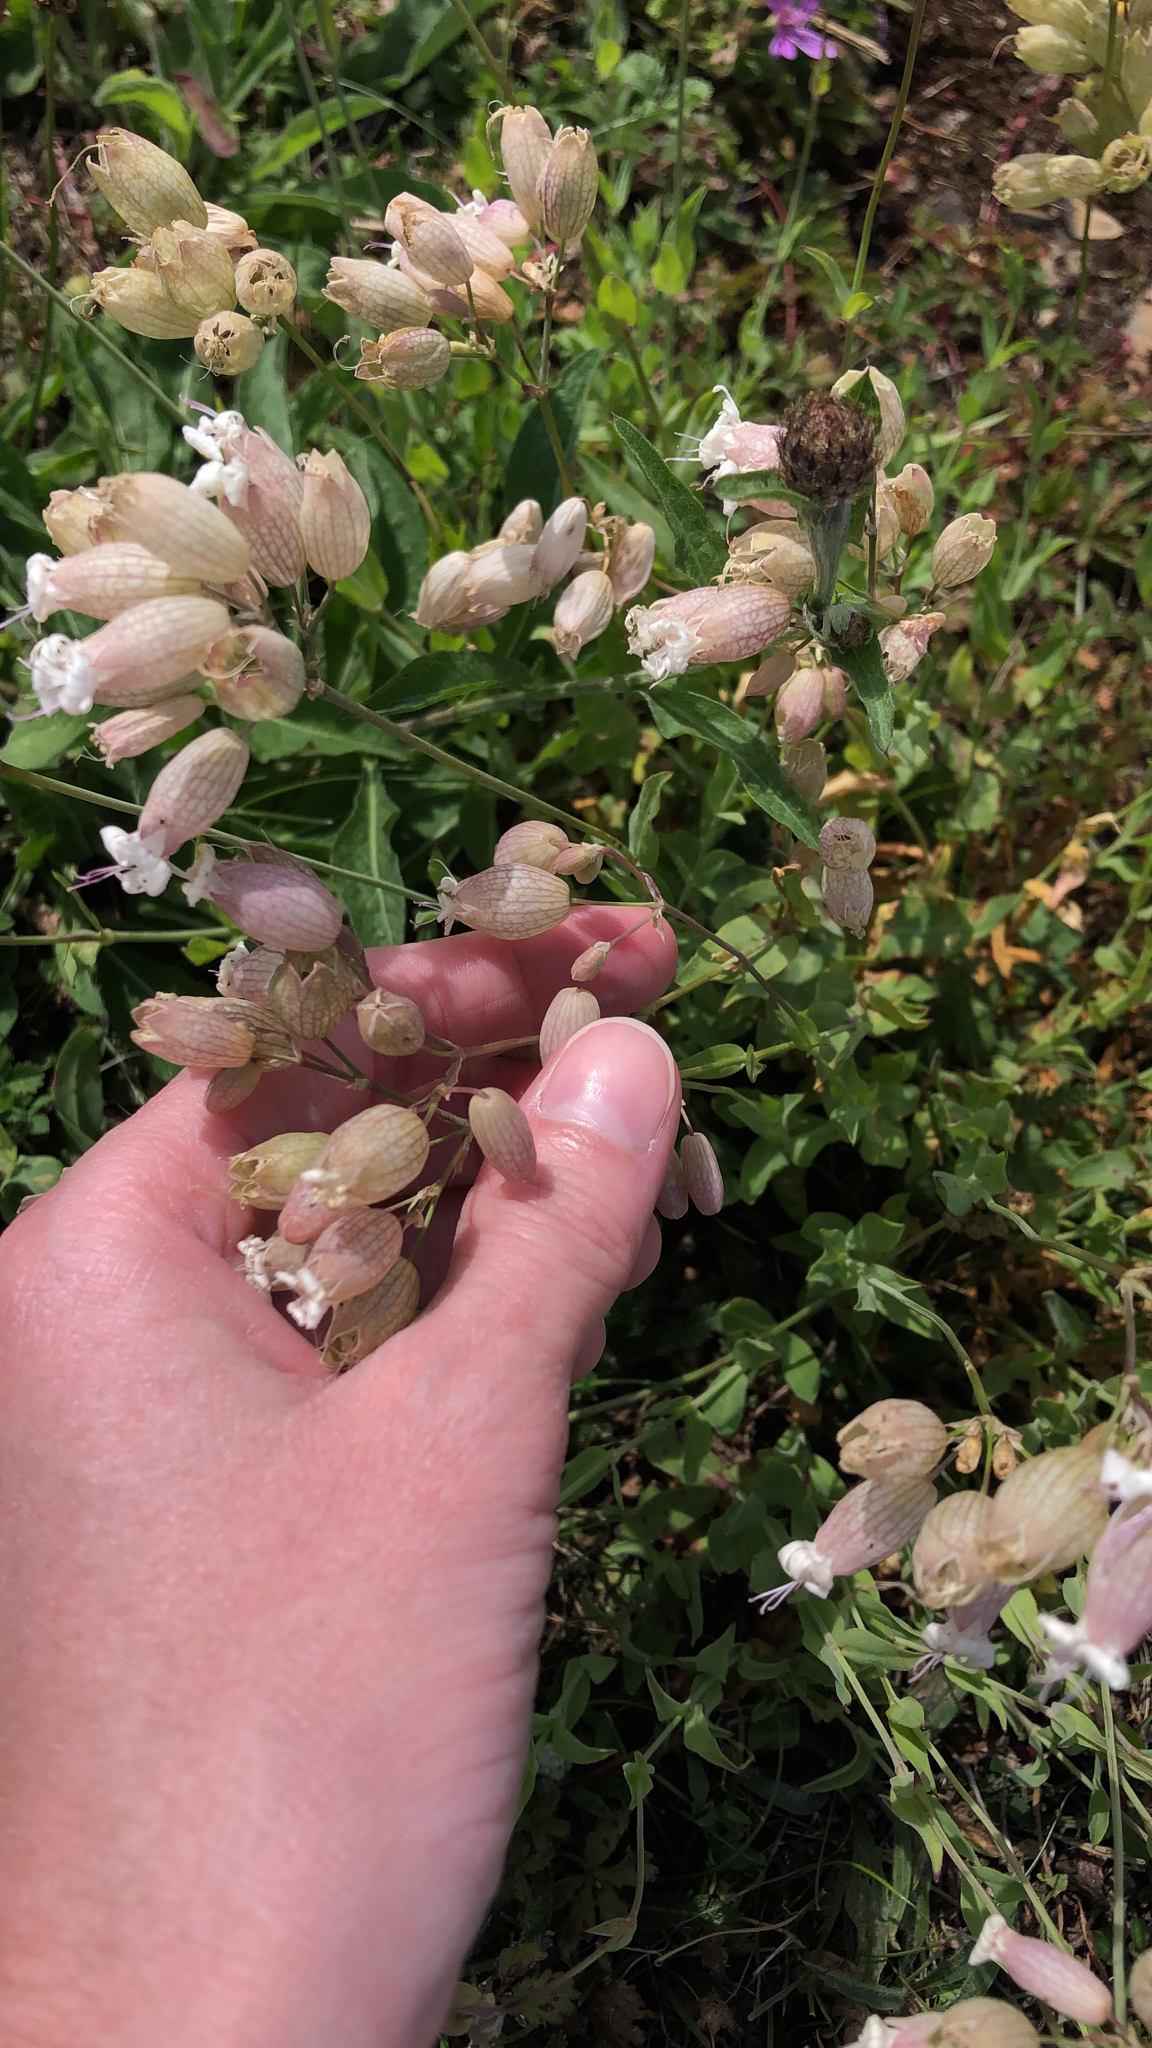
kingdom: Plantae
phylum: Tracheophyta
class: Magnoliopsida
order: Caryophyllales
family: Caryophyllaceae
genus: Silene
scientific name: Silene vulgaris
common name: Bladder campion
